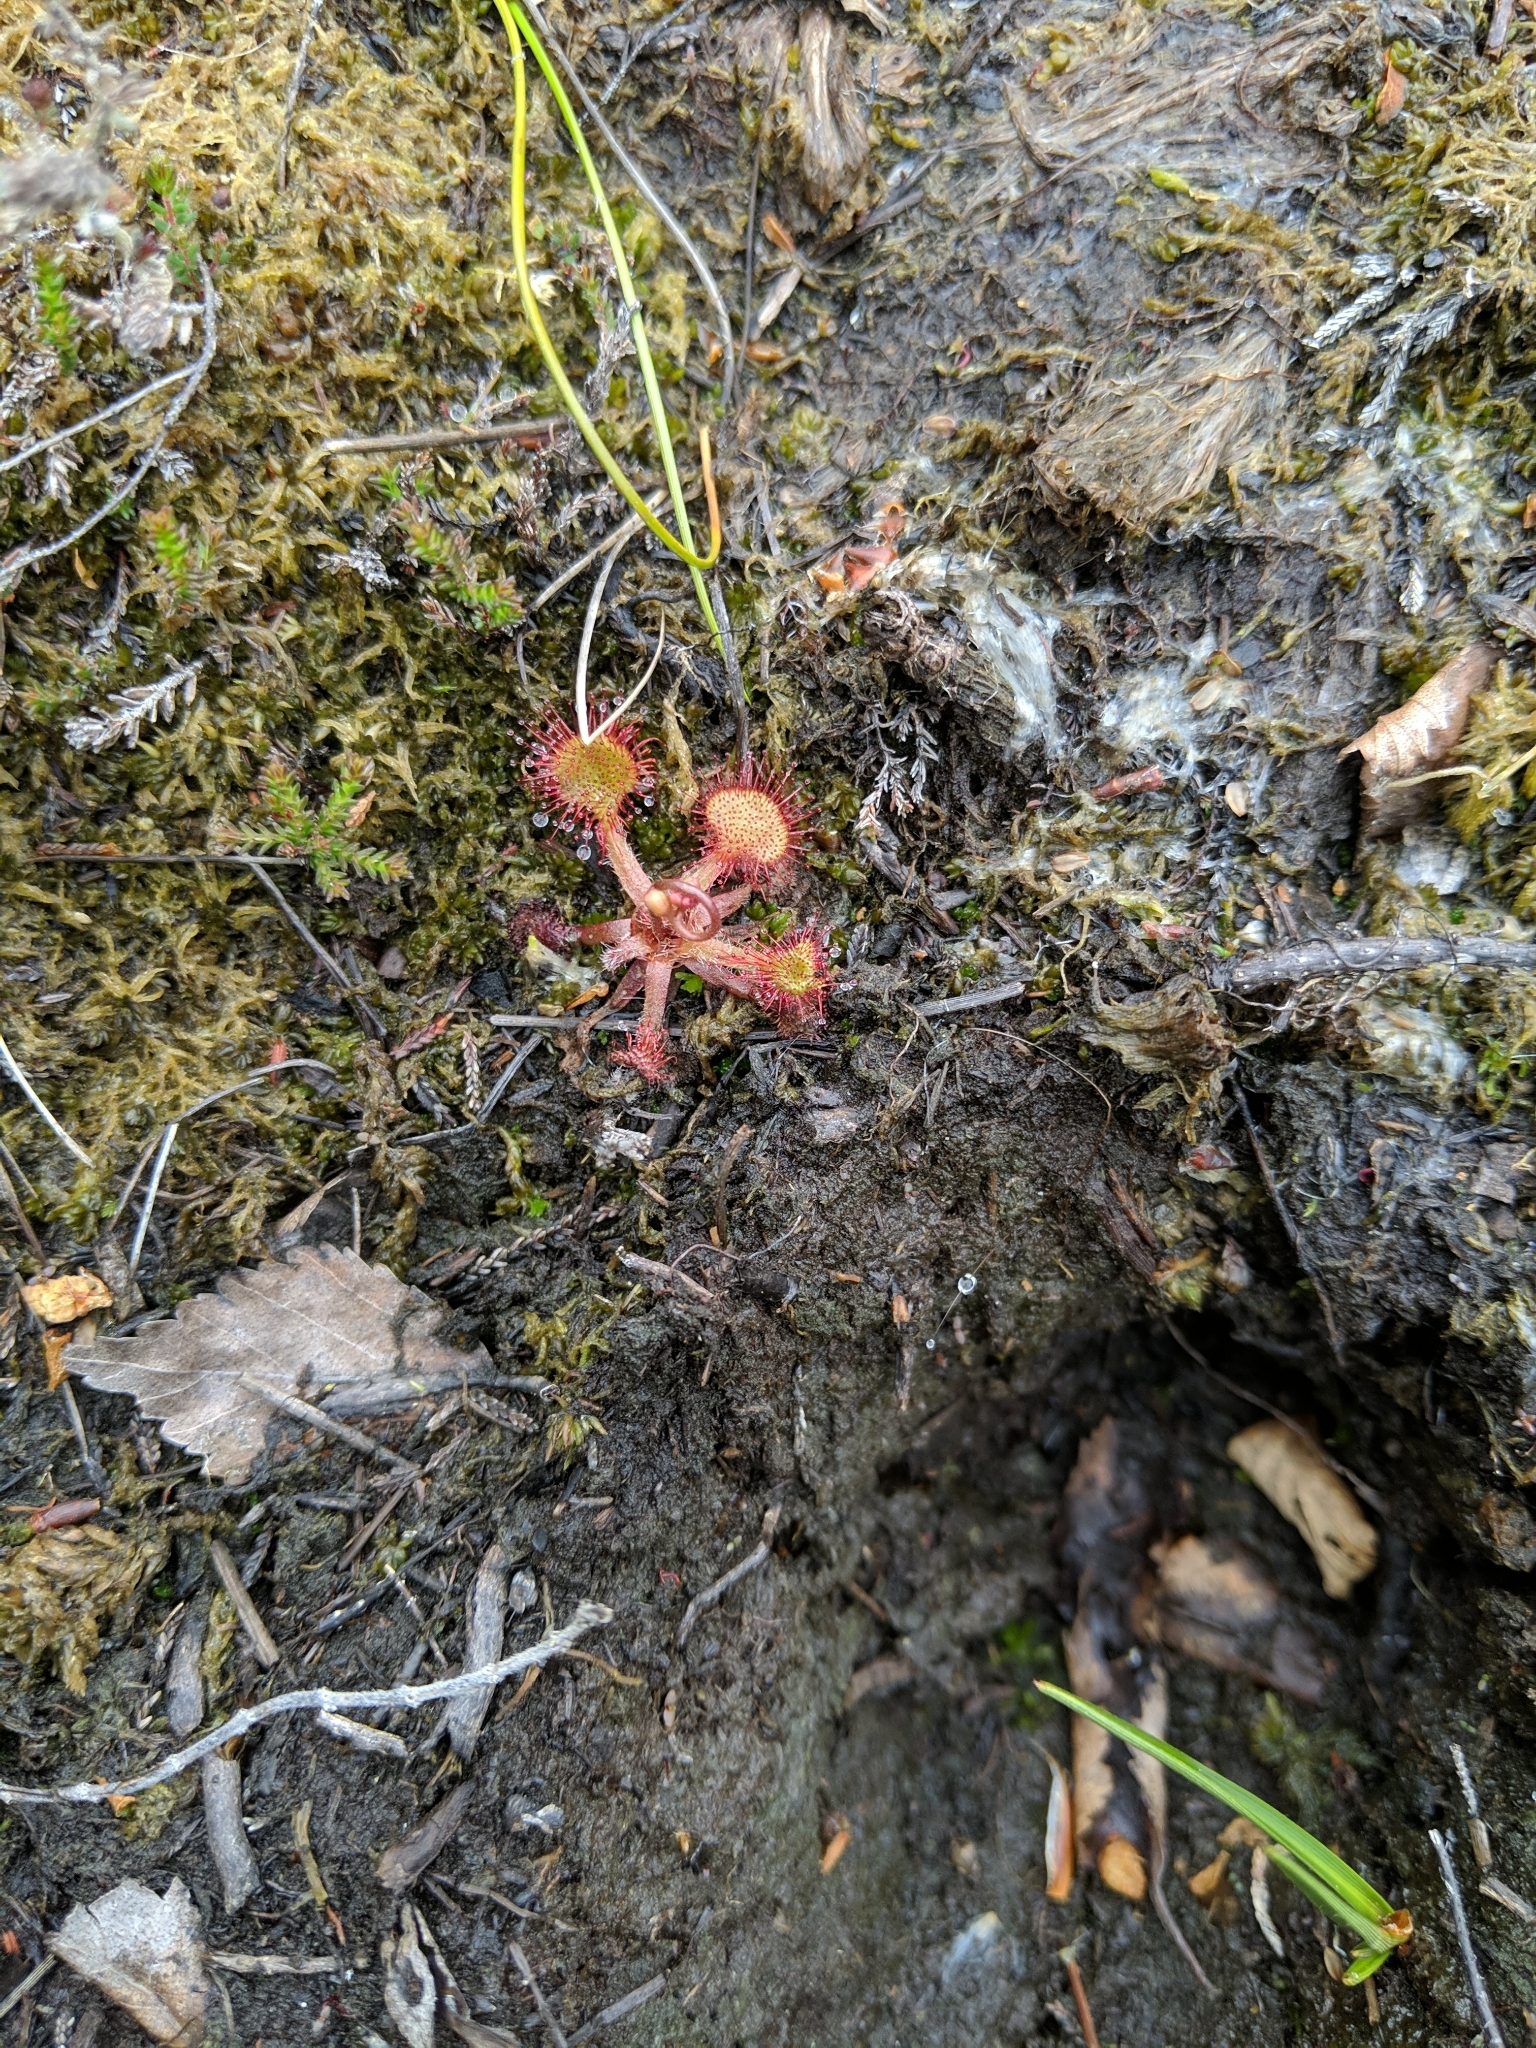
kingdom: Plantae
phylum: Tracheophyta
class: Magnoliopsida
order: Caryophyllales
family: Droseraceae
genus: Drosera
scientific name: Drosera rotundifolia
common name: Round-leaved sundew
